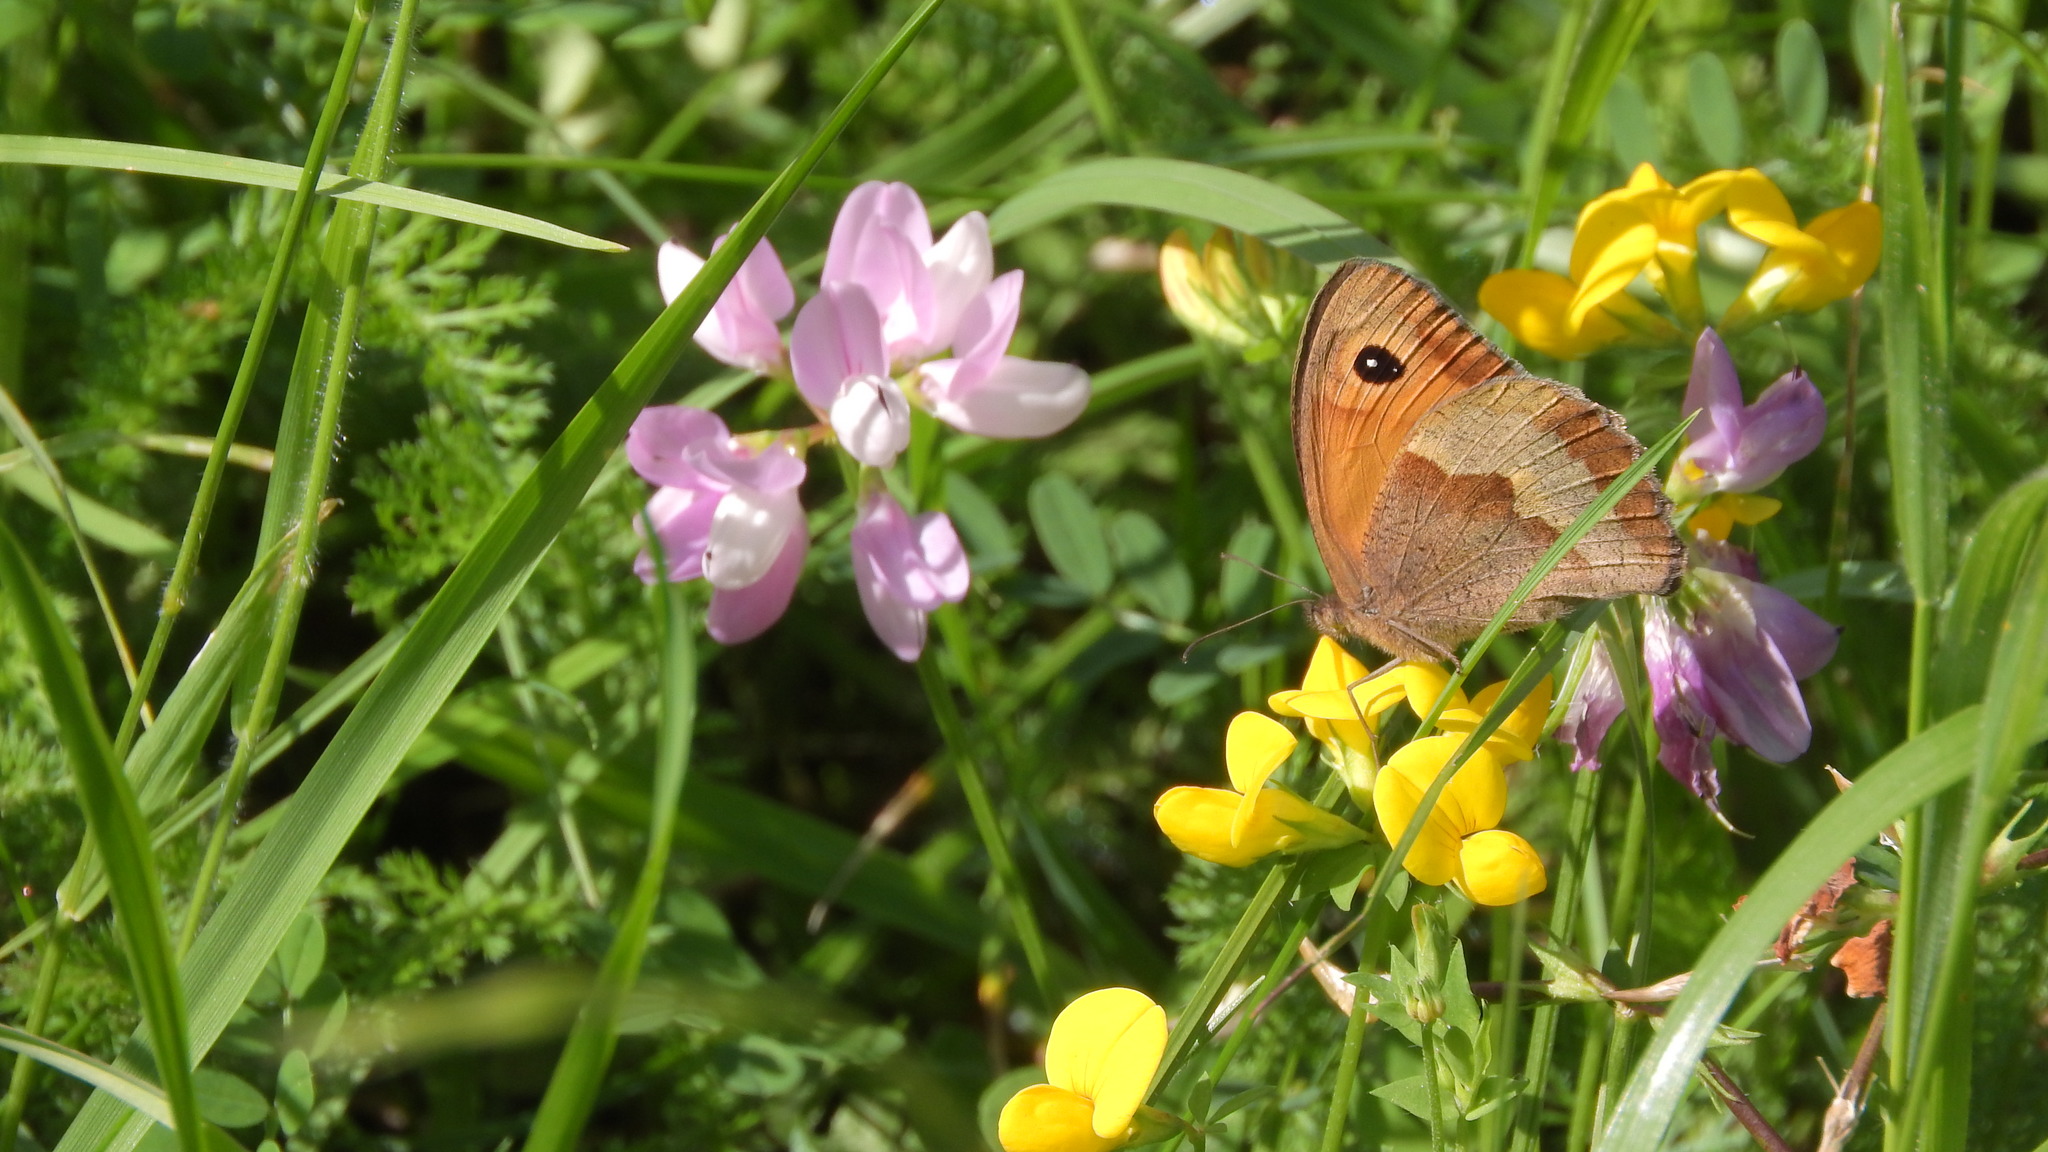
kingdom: Animalia
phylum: Arthropoda
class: Insecta
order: Lepidoptera
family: Nymphalidae
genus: Maniola
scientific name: Maniola jurtina
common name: Meadow brown
